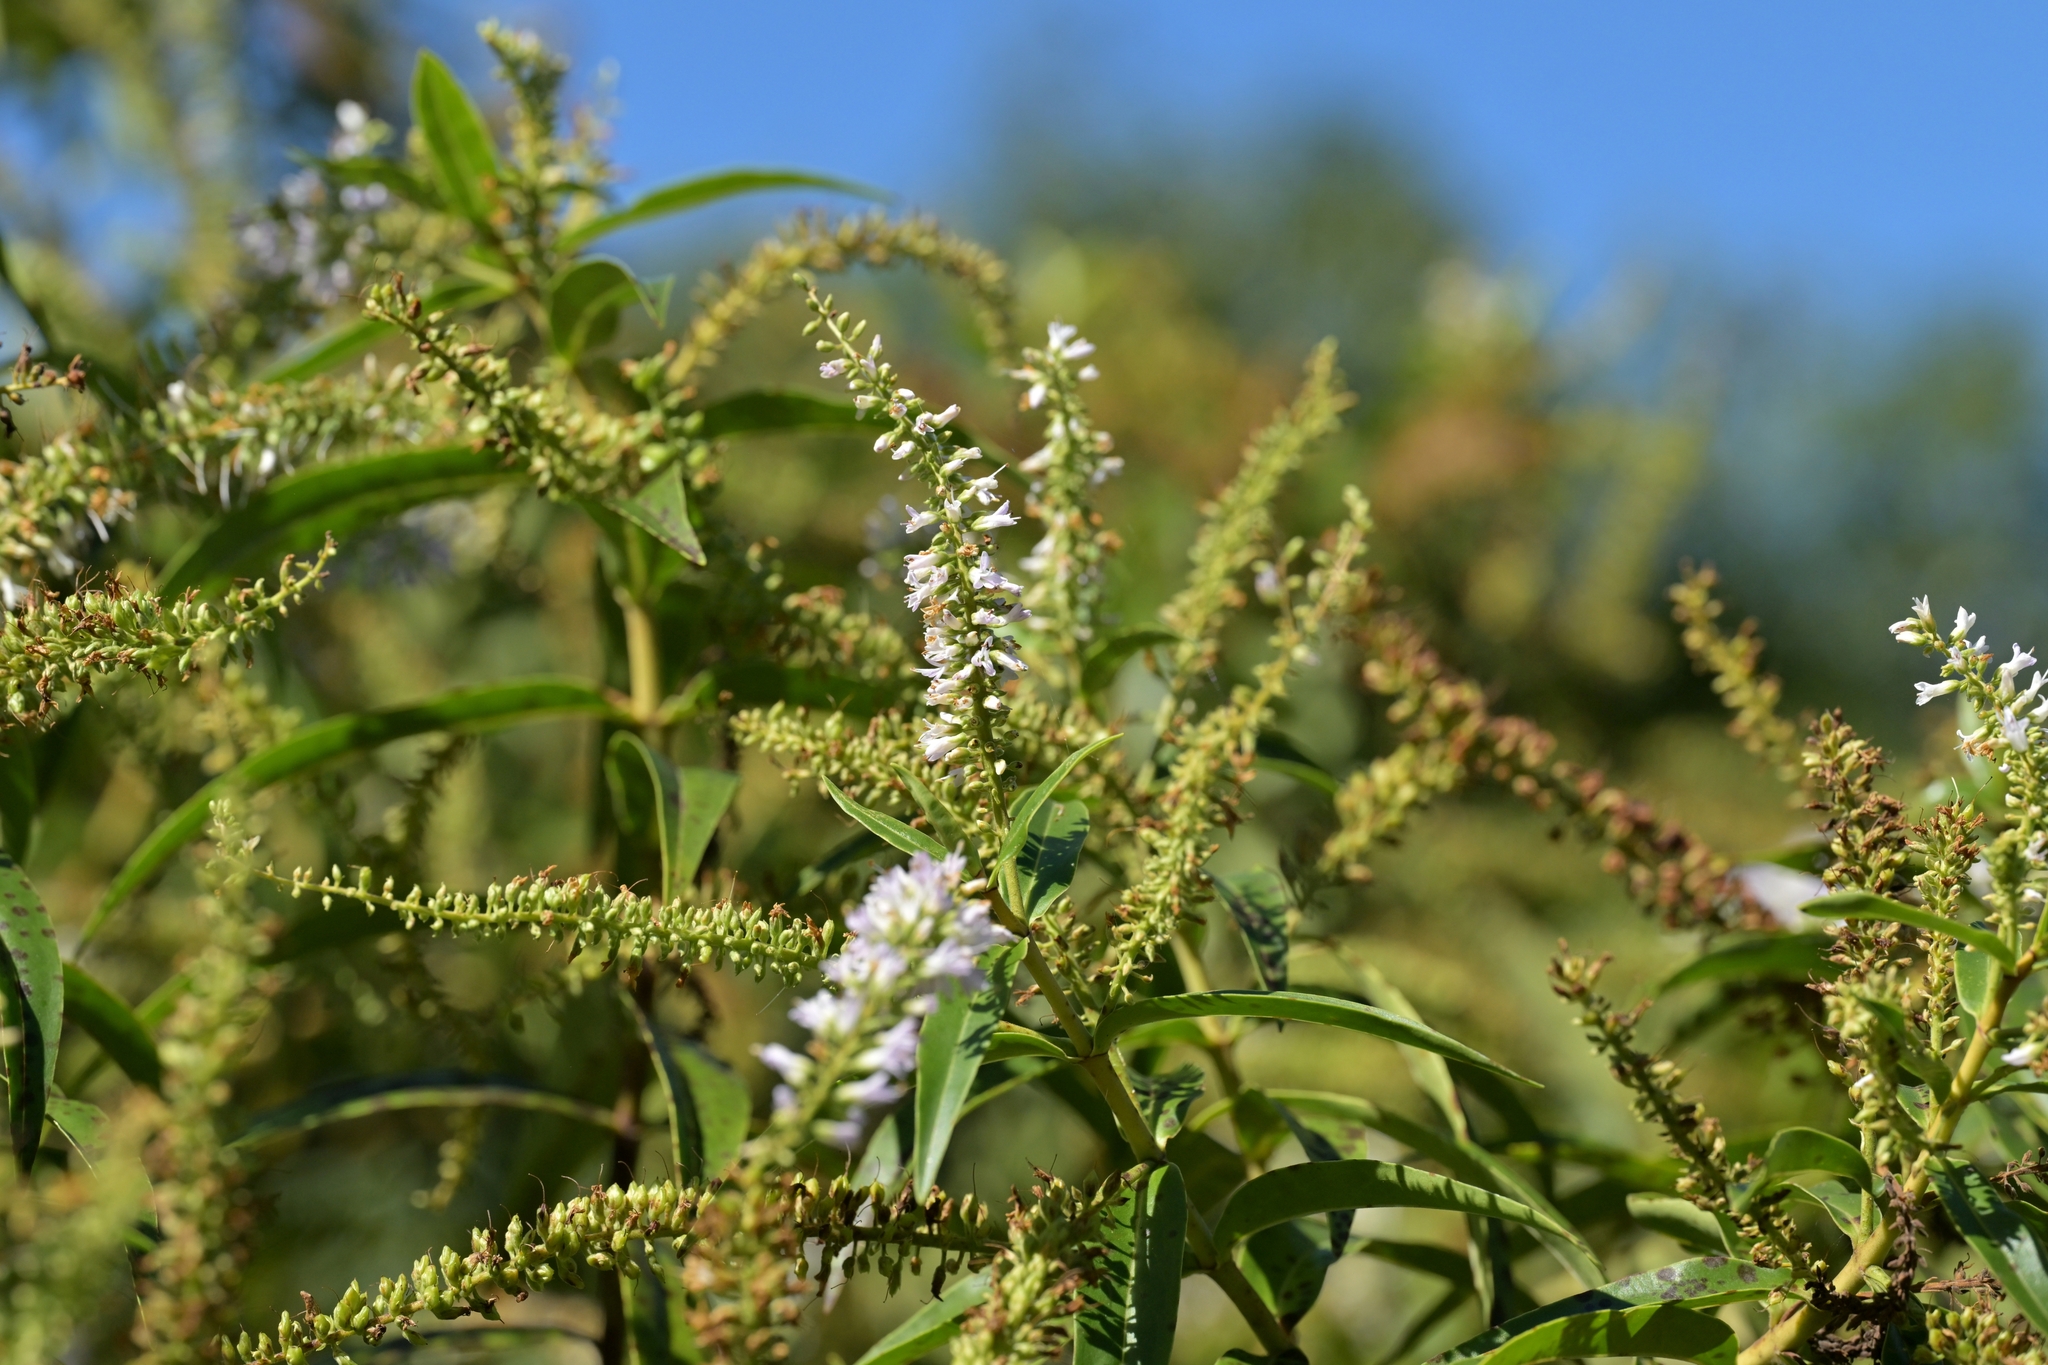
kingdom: Plantae
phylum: Tracheophyta
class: Magnoliopsida
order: Lamiales
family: Plantaginaceae
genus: Veronica
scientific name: Veronica stricta
